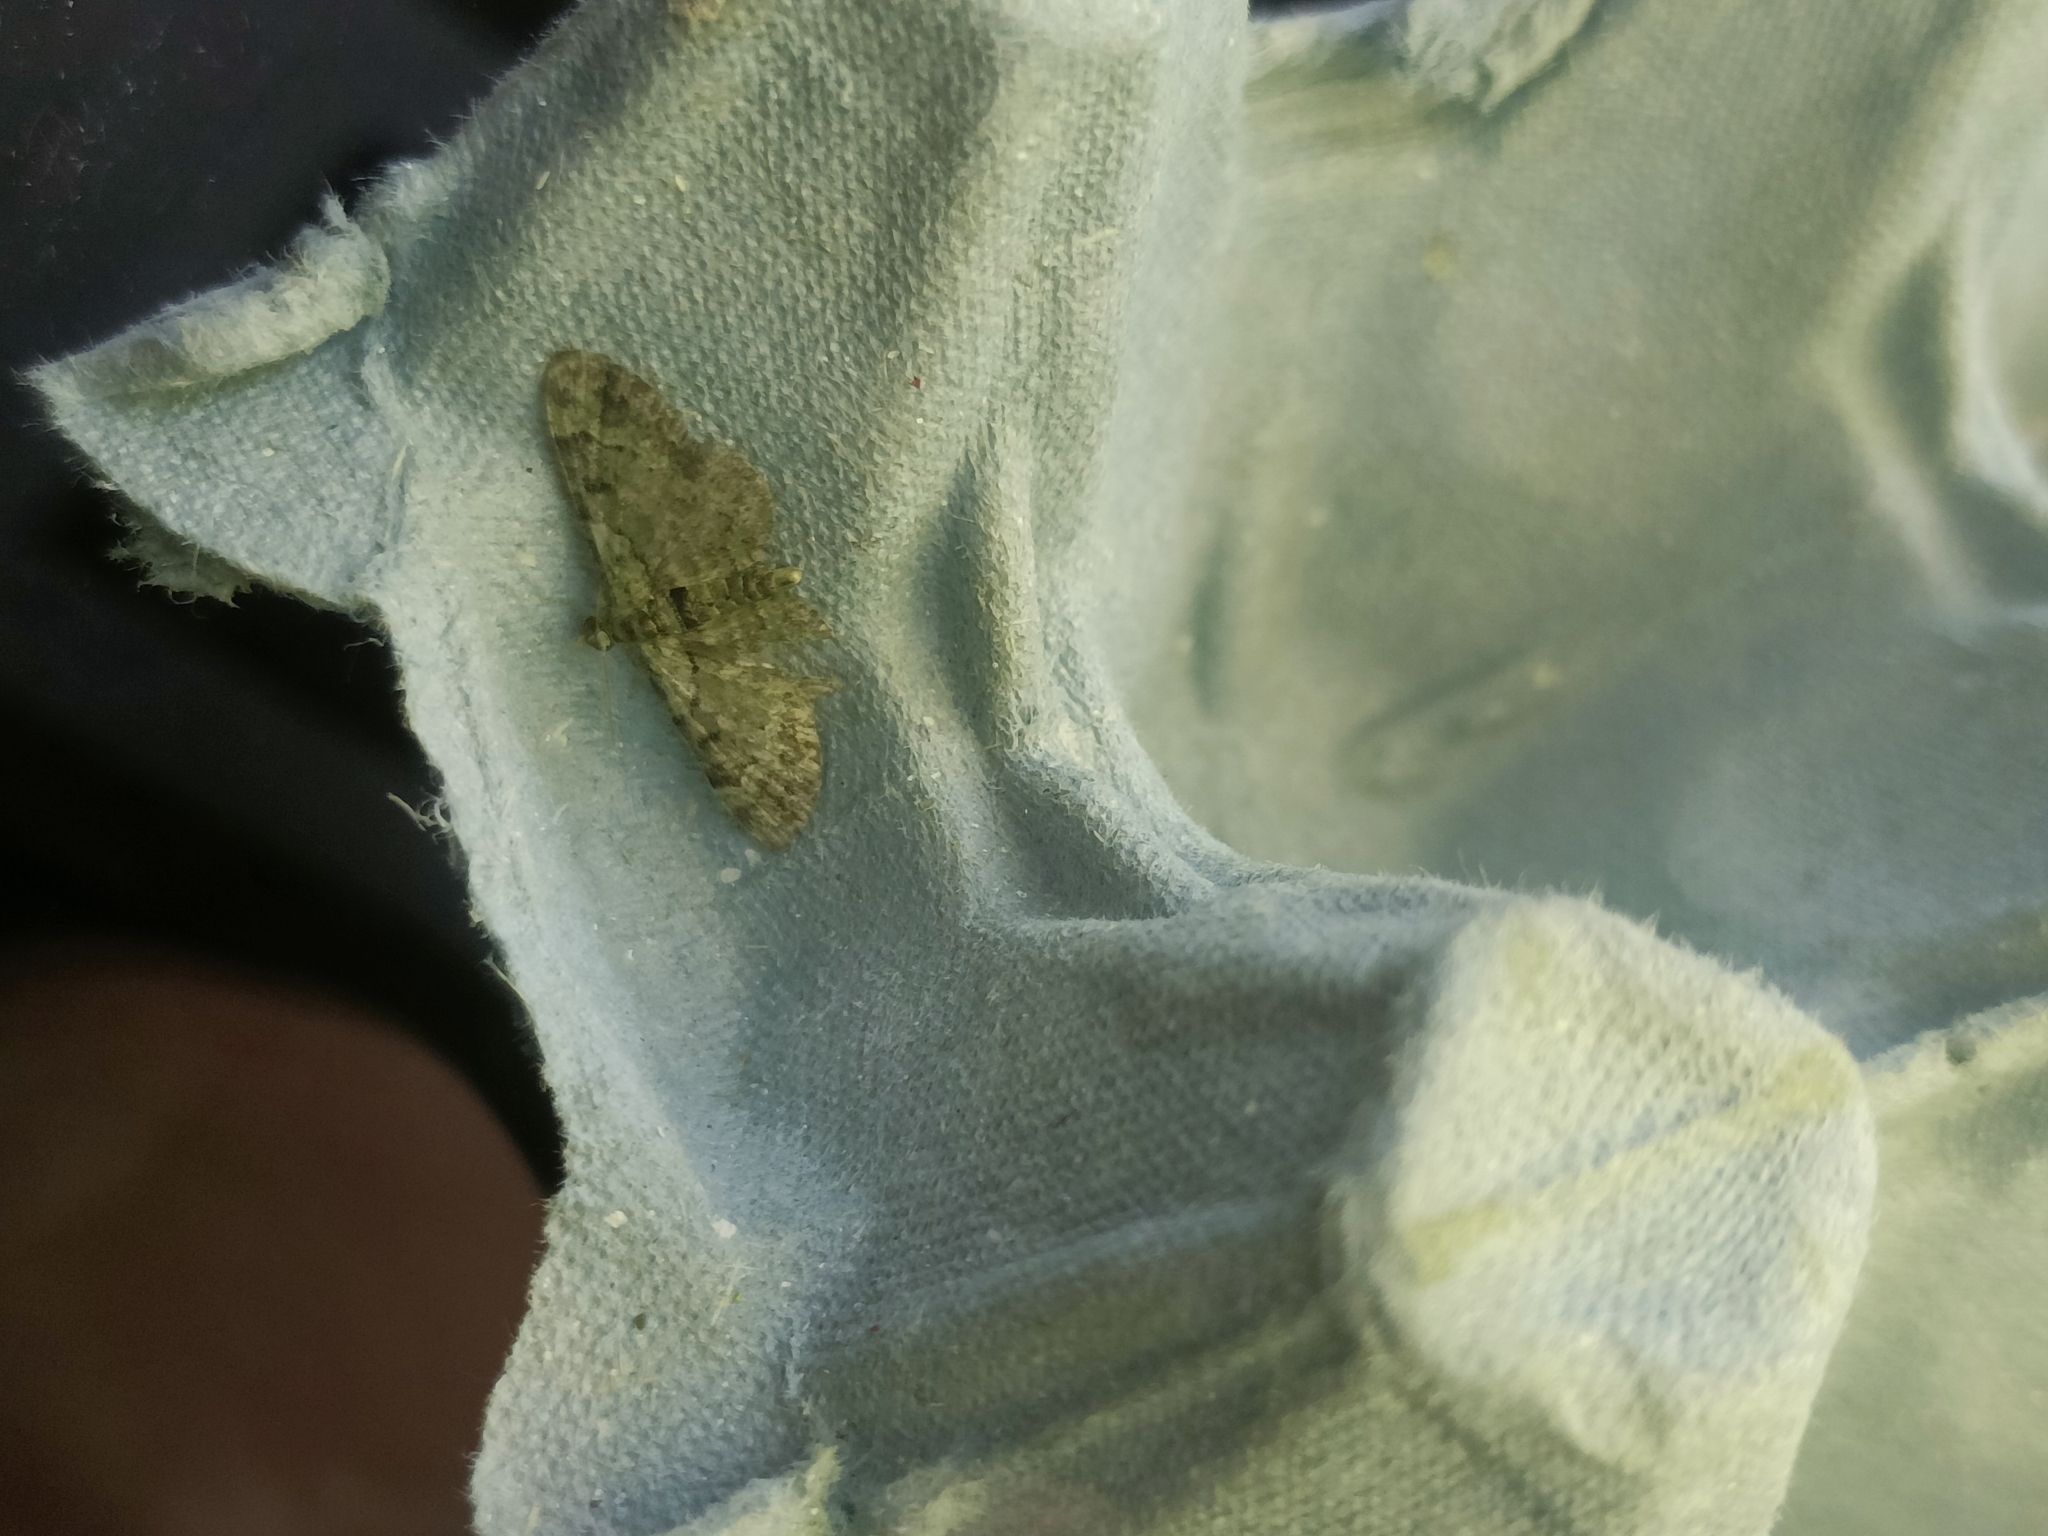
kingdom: Animalia
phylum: Arthropoda
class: Insecta
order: Lepidoptera
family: Geometridae
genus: Pasiphila
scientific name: Pasiphila rectangulata
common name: Green pug
